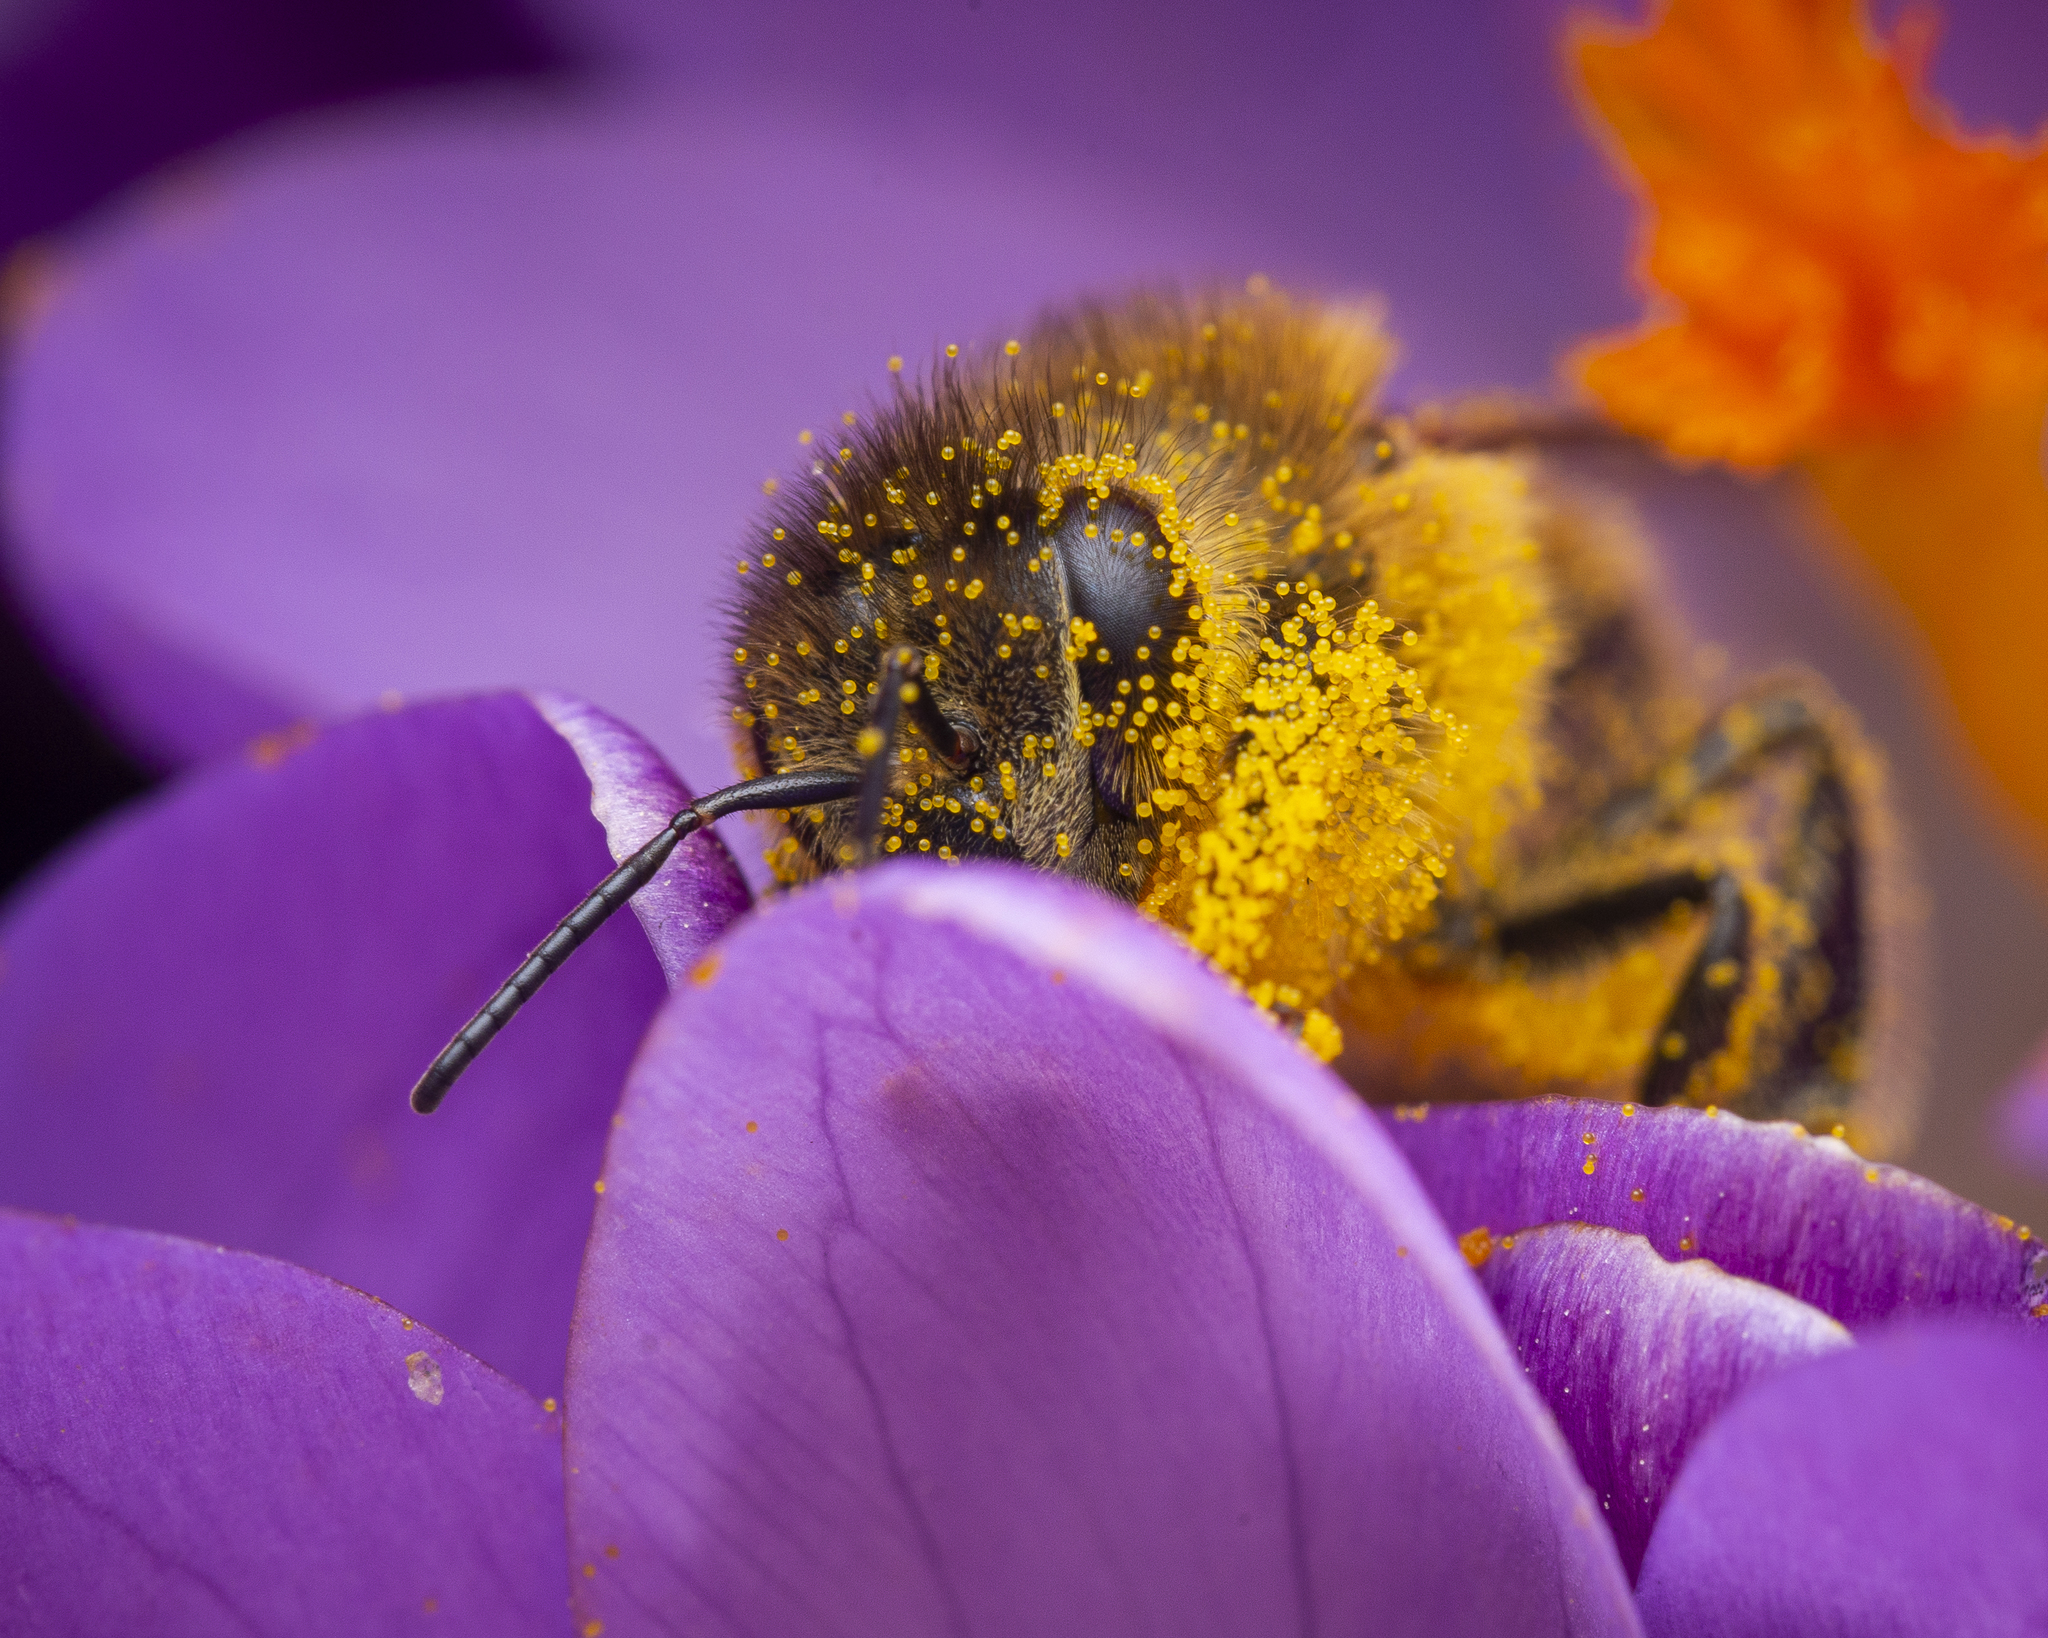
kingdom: Animalia
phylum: Arthropoda
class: Insecta
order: Hymenoptera
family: Apidae
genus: Apis
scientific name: Apis mellifera
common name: Honey bee
